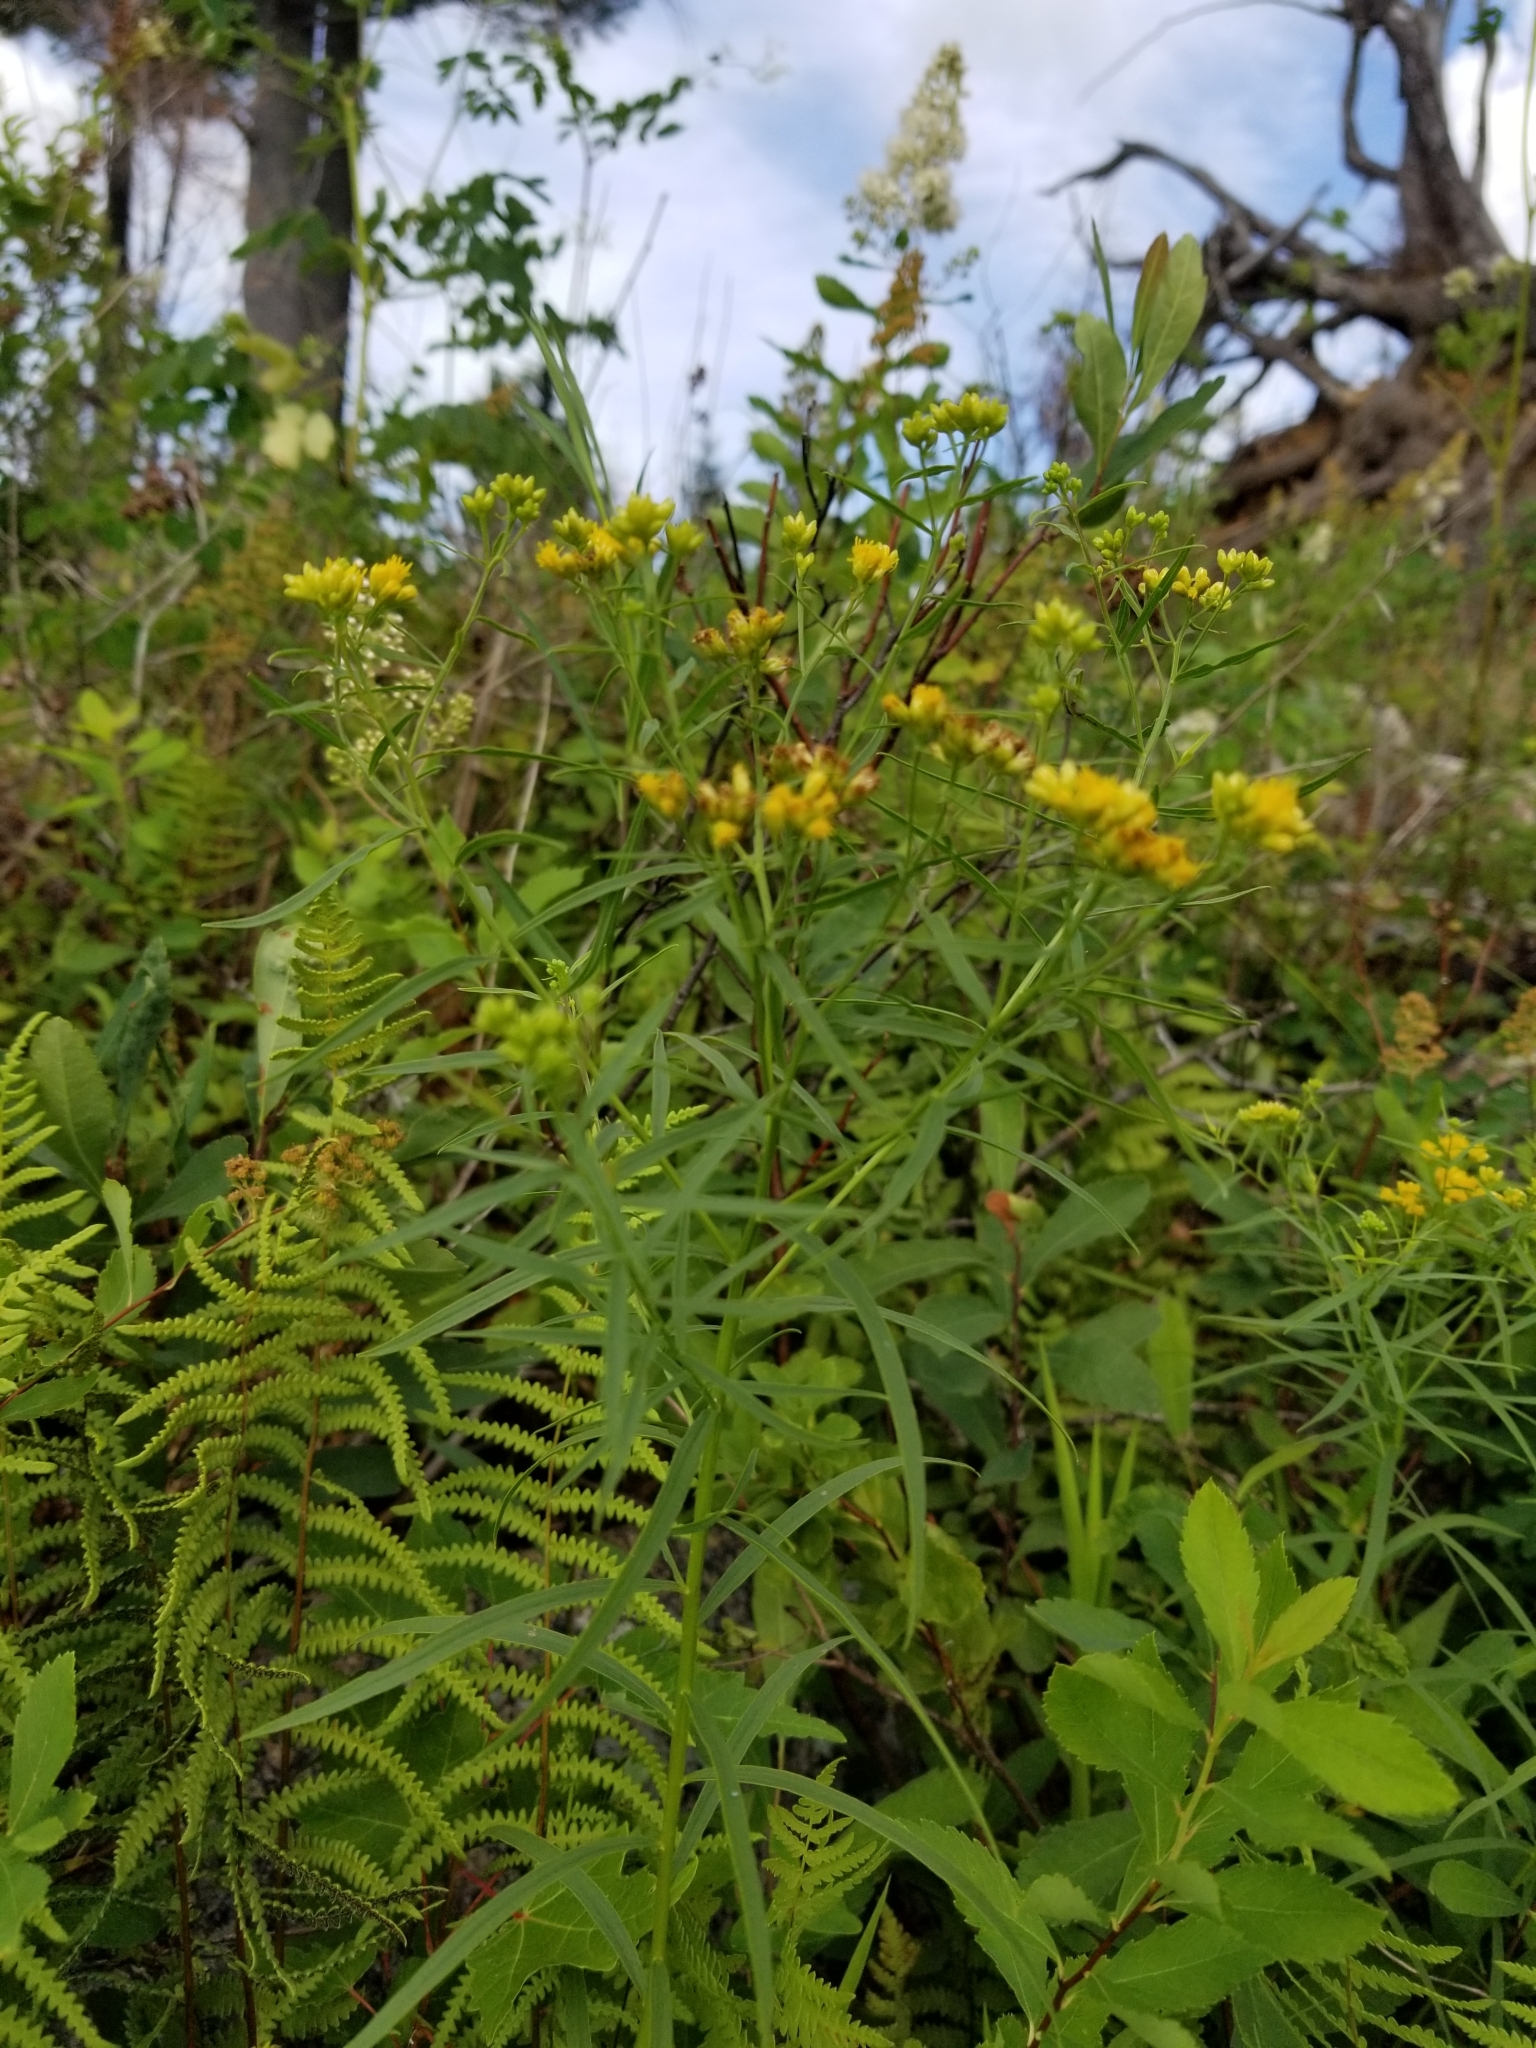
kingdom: Plantae
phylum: Tracheophyta
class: Magnoliopsida
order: Asterales
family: Asteraceae
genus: Euthamia
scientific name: Euthamia graminifolia
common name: Common goldentop
